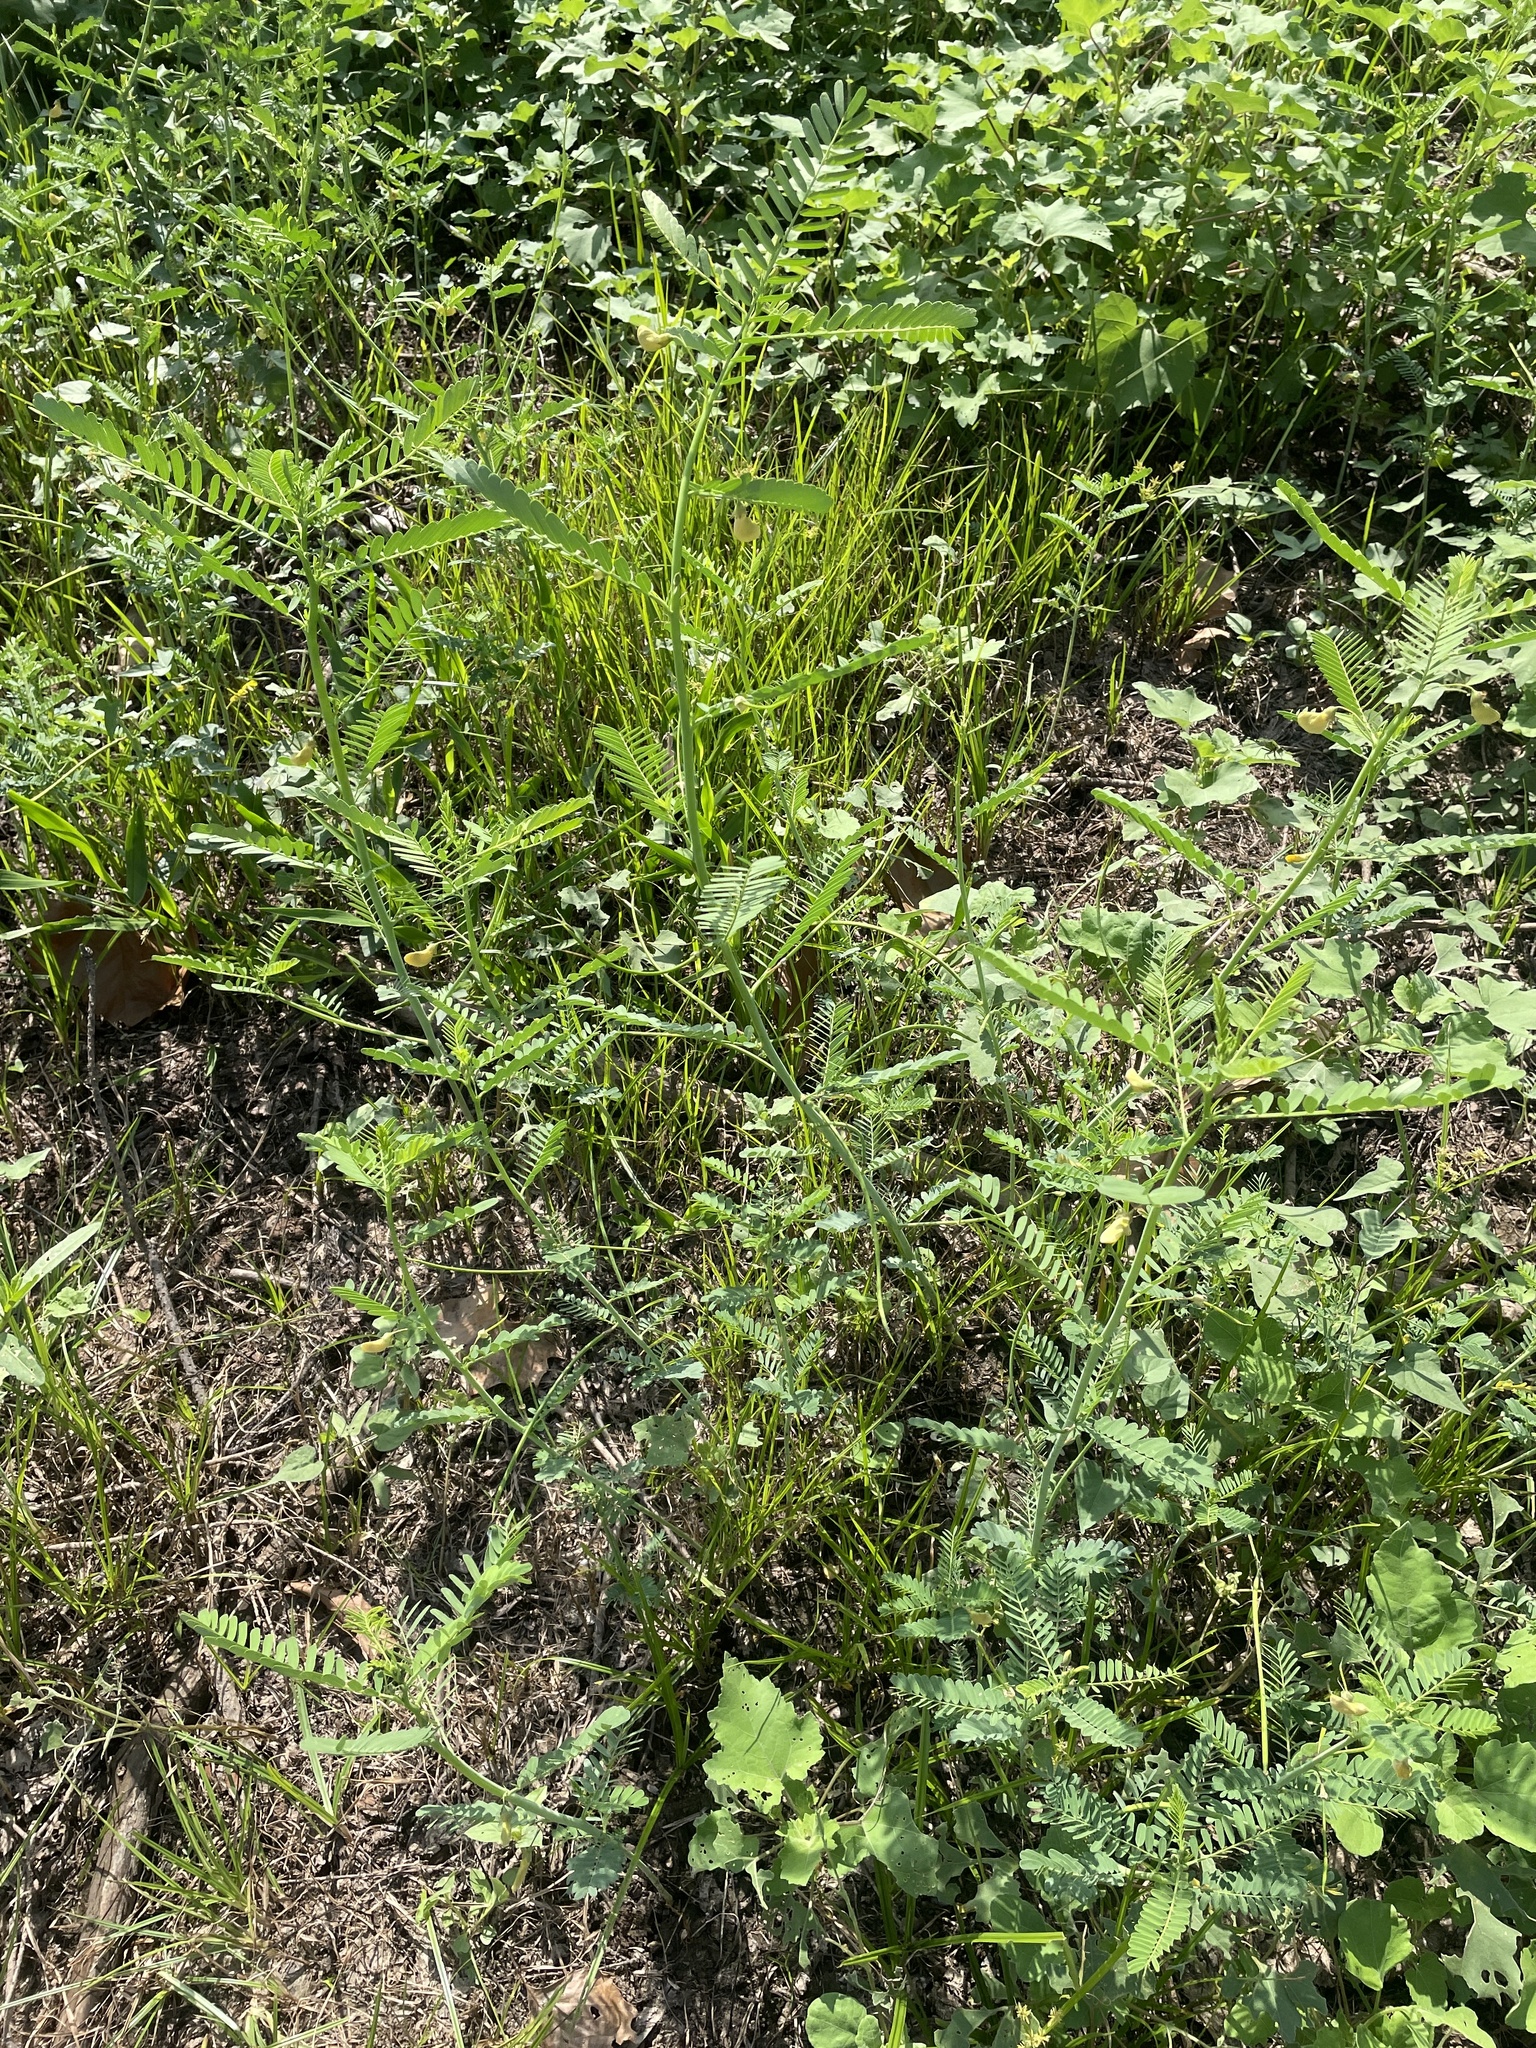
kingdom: Plantae
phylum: Tracheophyta
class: Magnoliopsida
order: Fabales
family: Fabaceae
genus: Sesbania
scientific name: Sesbania herbacea
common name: Bigpod sesbania
